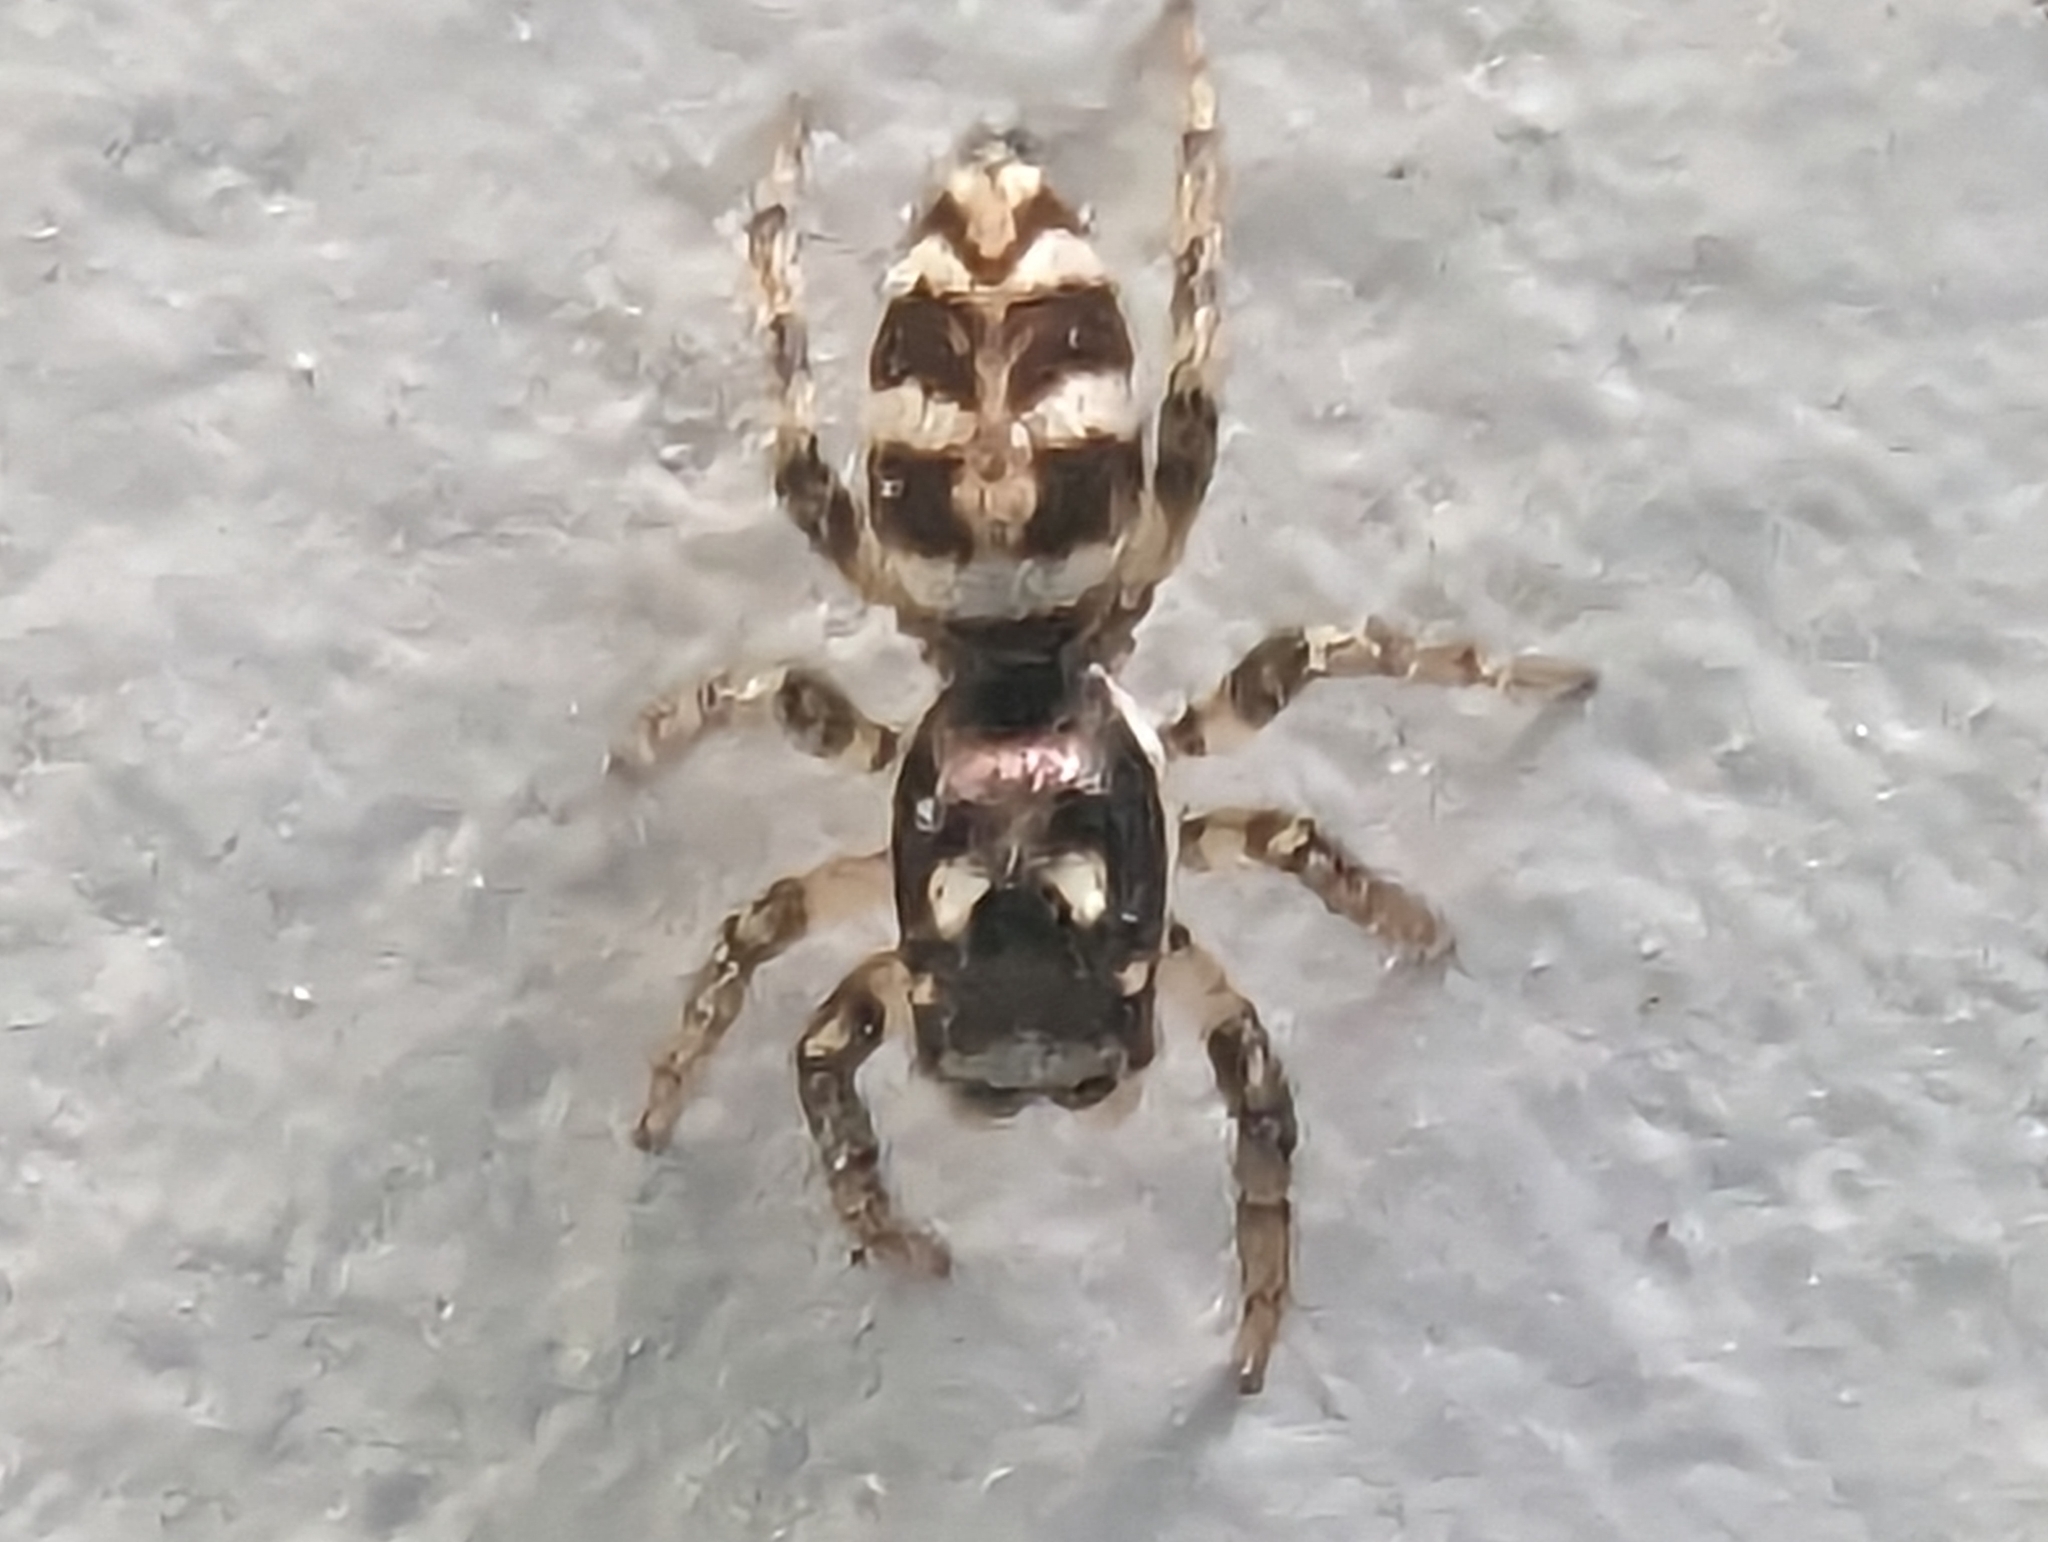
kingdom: Animalia
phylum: Arthropoda
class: Arachnida
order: Araneae
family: Salticidae
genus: Salticus
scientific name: Salticus scenicus
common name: Zebra jumper
